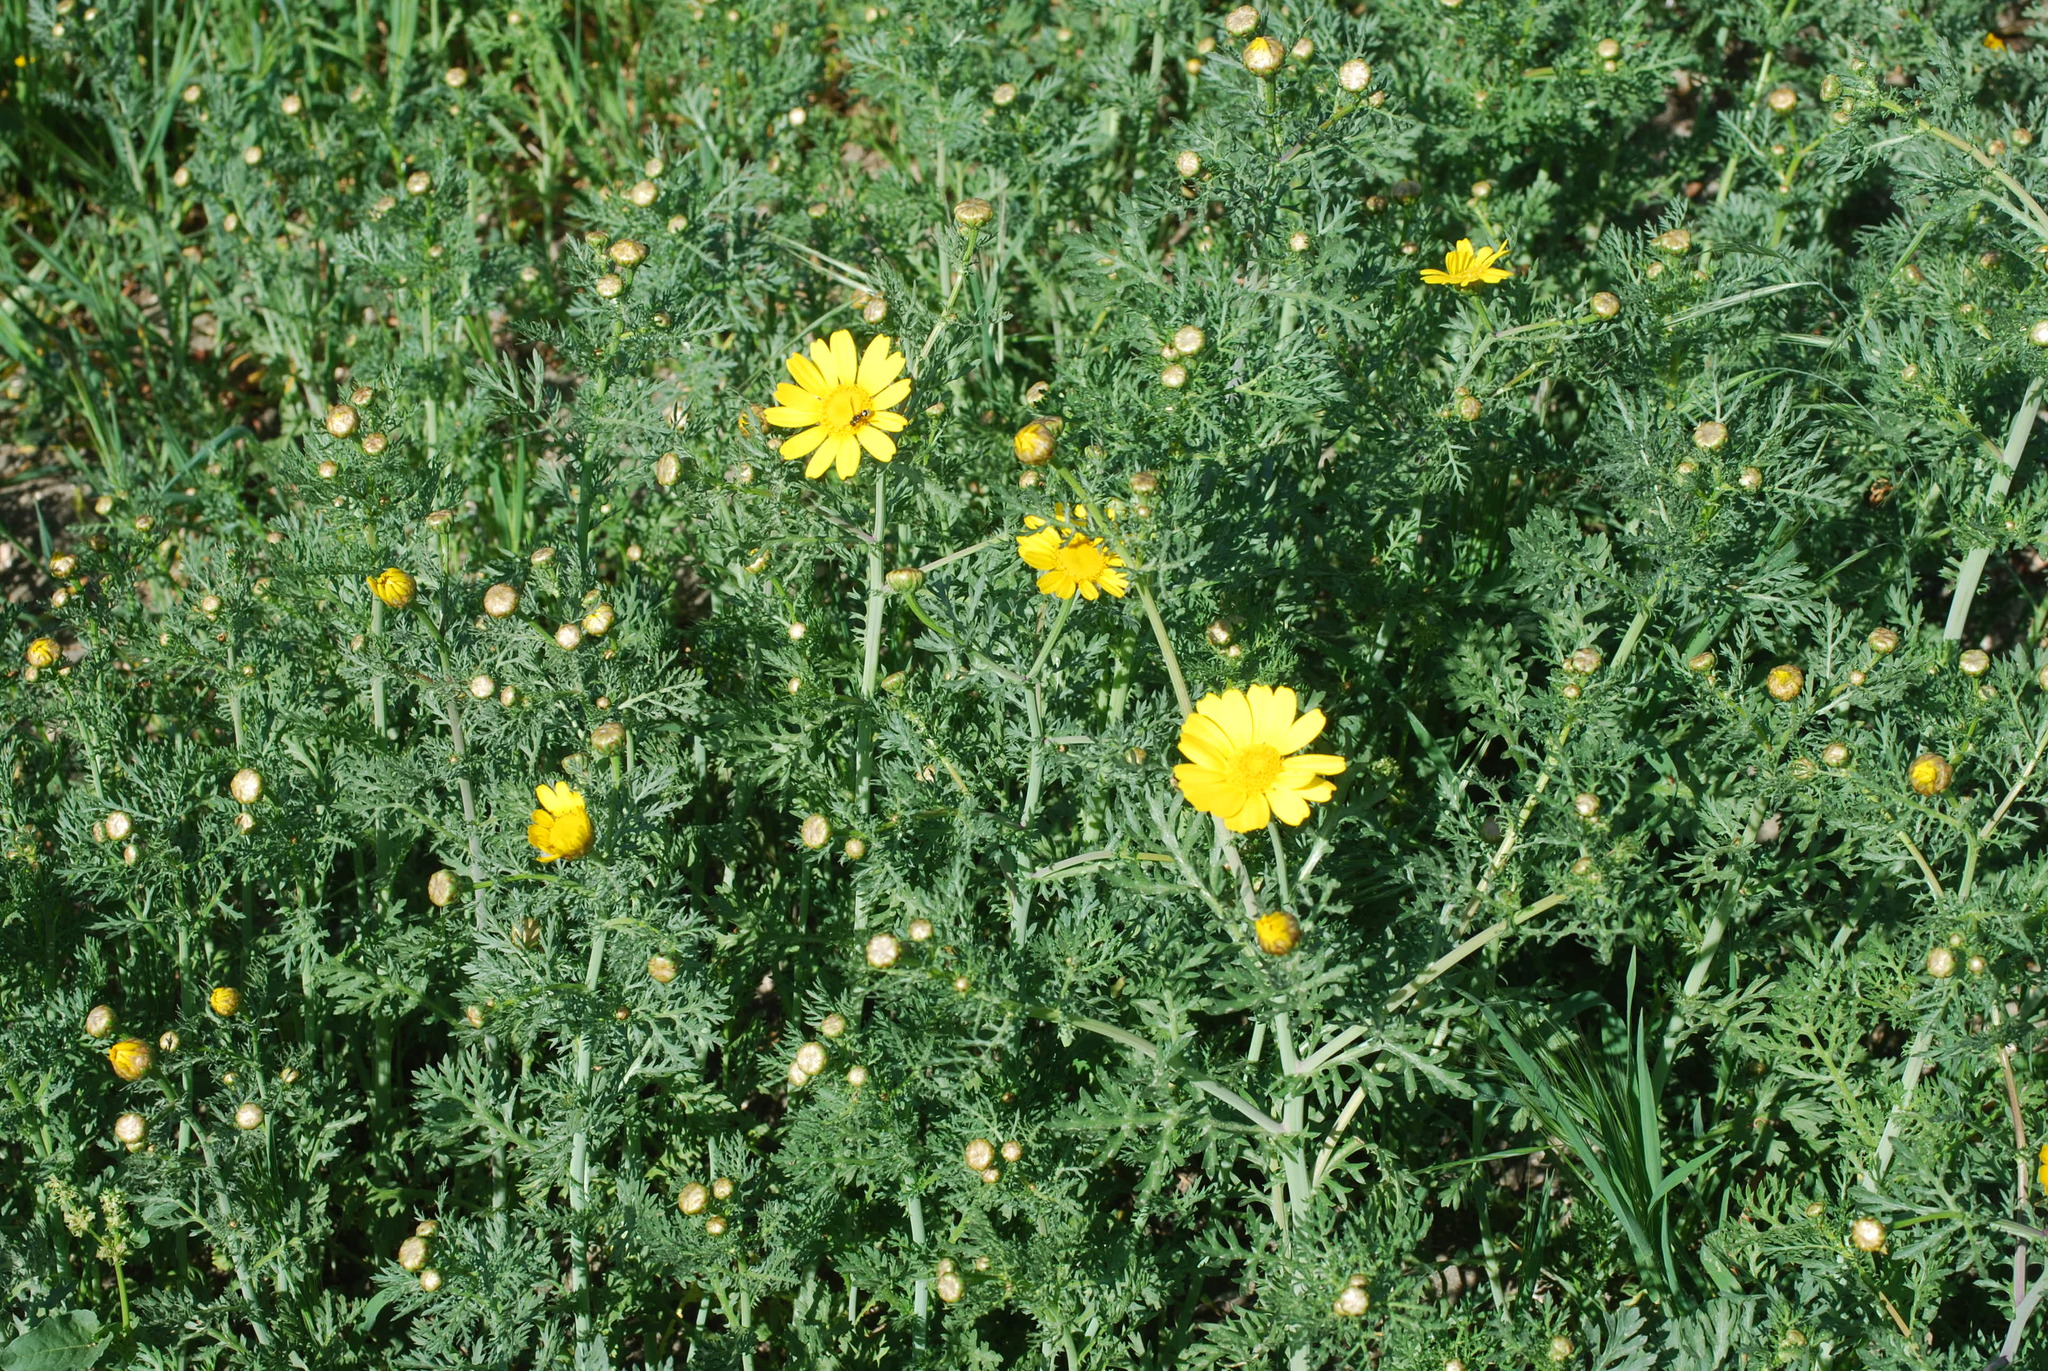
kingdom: Plantae
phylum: Tracheophyta
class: Magnoliopsida
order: Asterales
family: Asteraceae
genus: Glebionis
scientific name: Glebionis coronaria
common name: Crowndaisy
